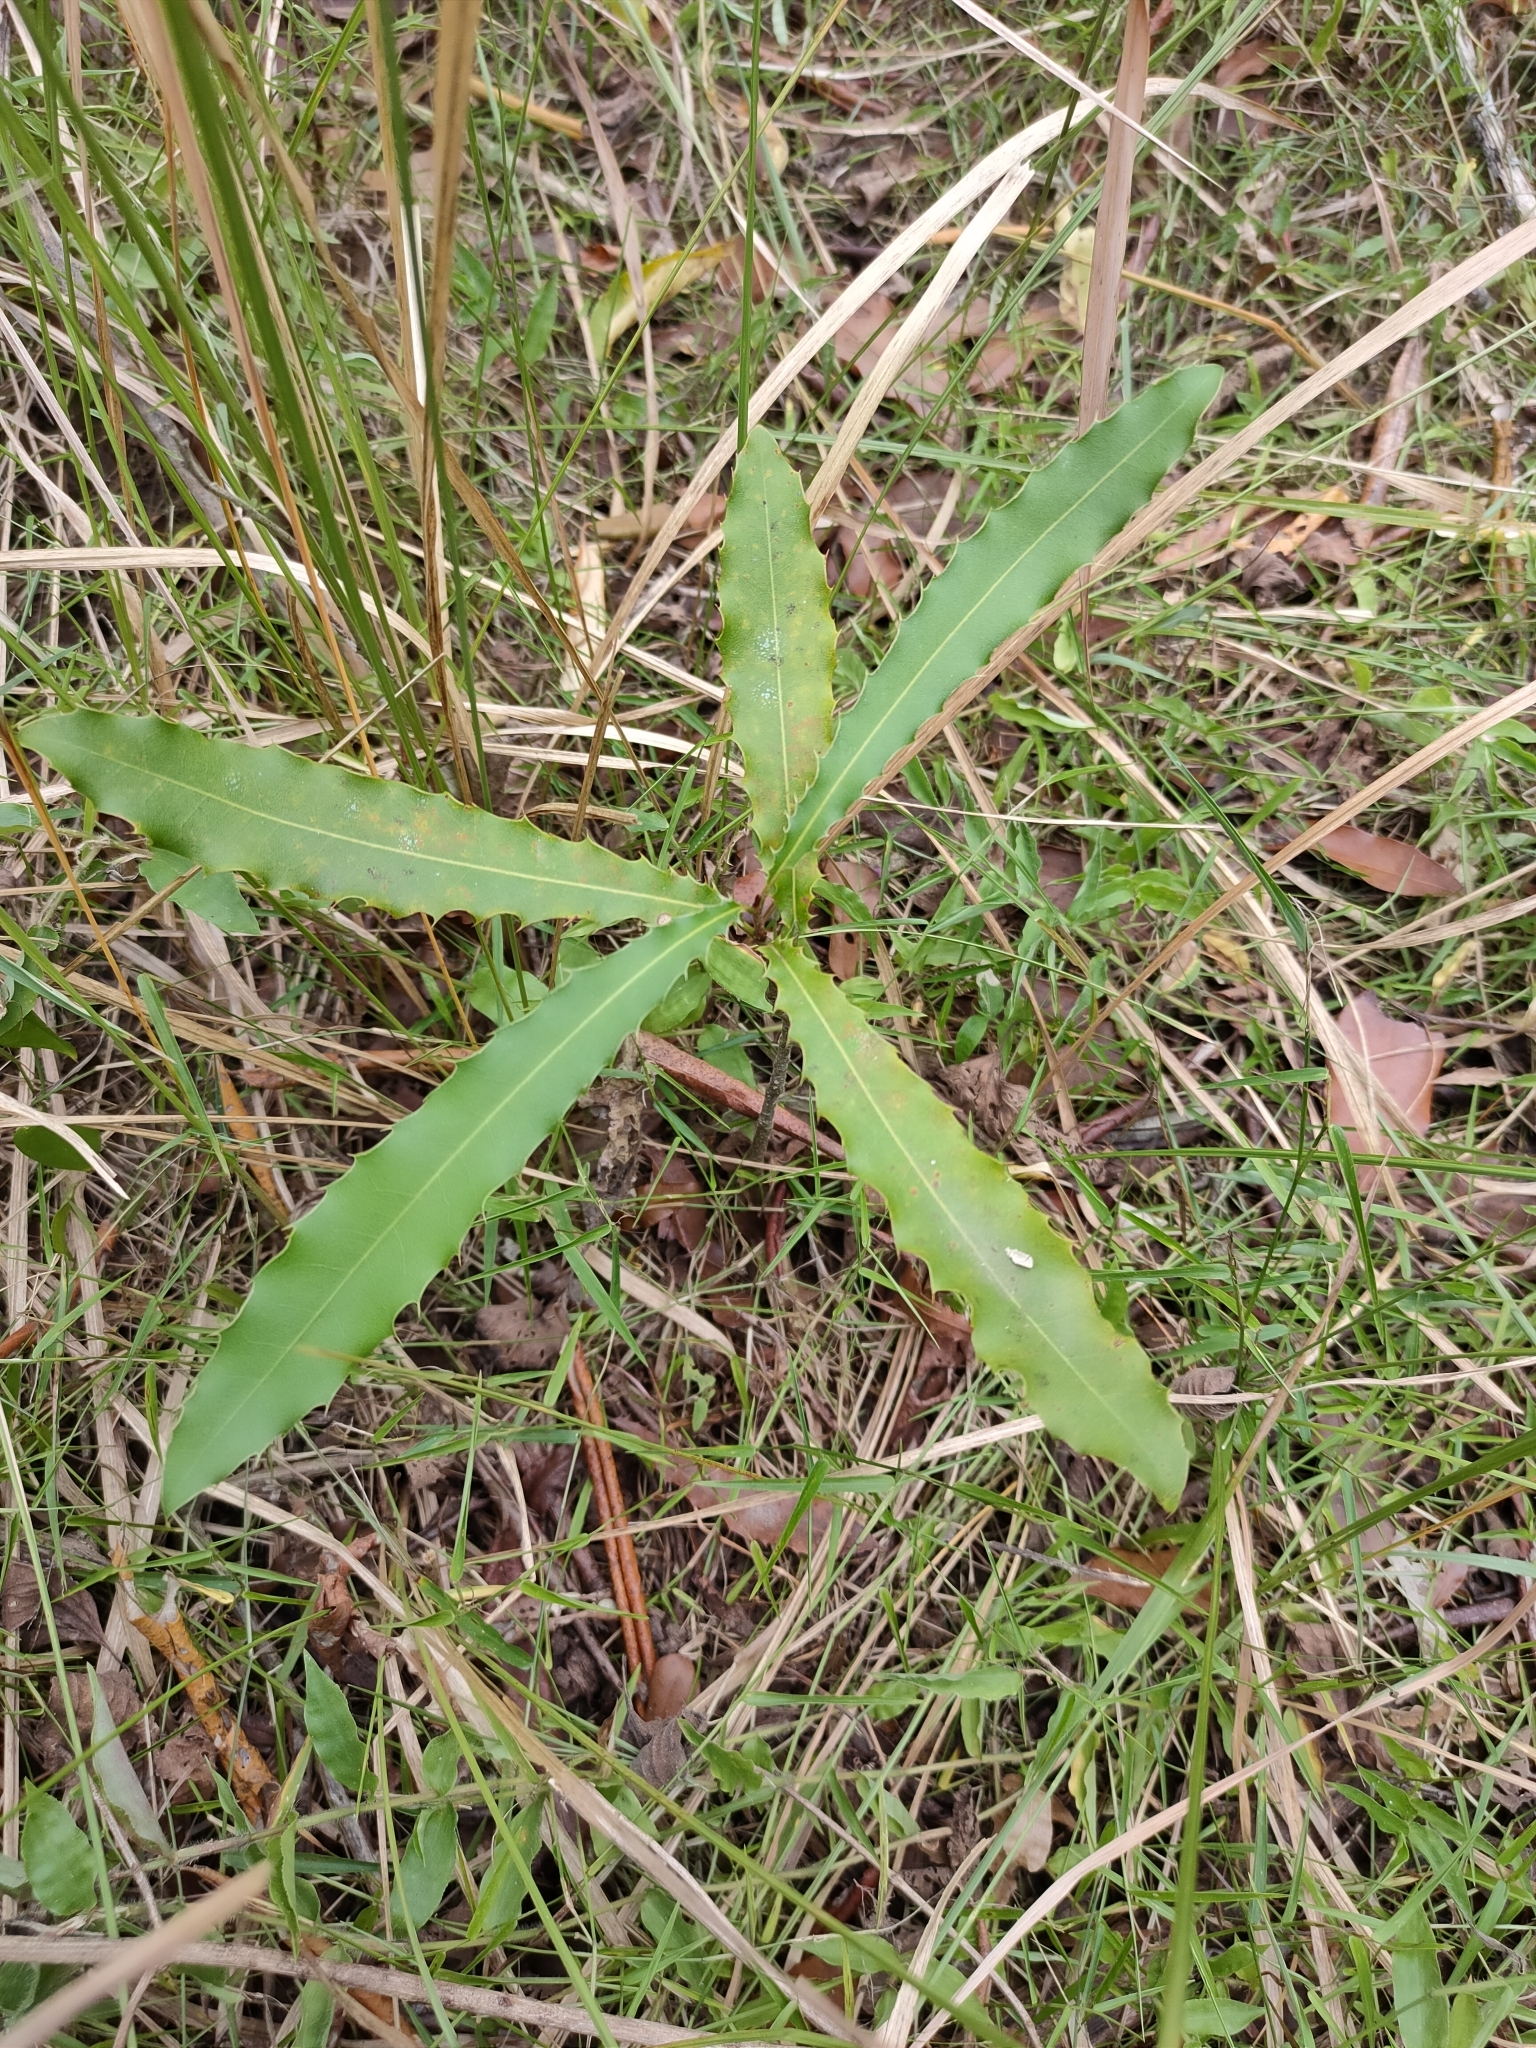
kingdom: Plantae
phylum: Tracheophyta
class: Magnoliopsida
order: Proteales
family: Proteaceae
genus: Macadamia
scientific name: Macadamia integrifolia
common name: Macadamia
